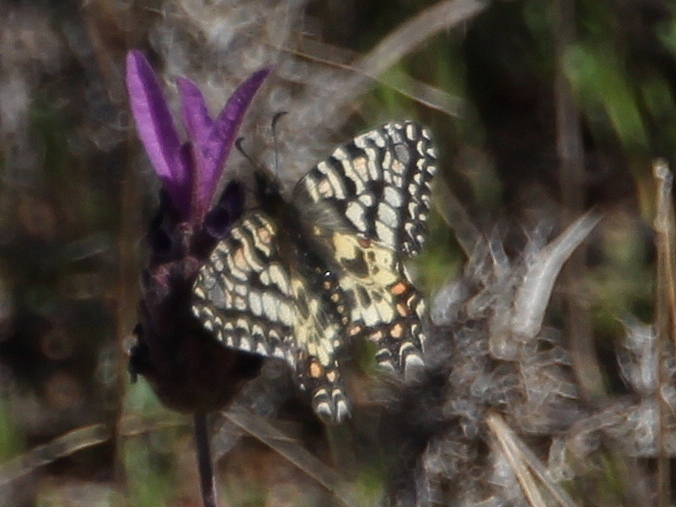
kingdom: Animalia
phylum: Arthropoda
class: Insecta
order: Lepidoptera
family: Papilionidae
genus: Zerynthia
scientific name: Zerynthia rumina
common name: Spanish festoon
